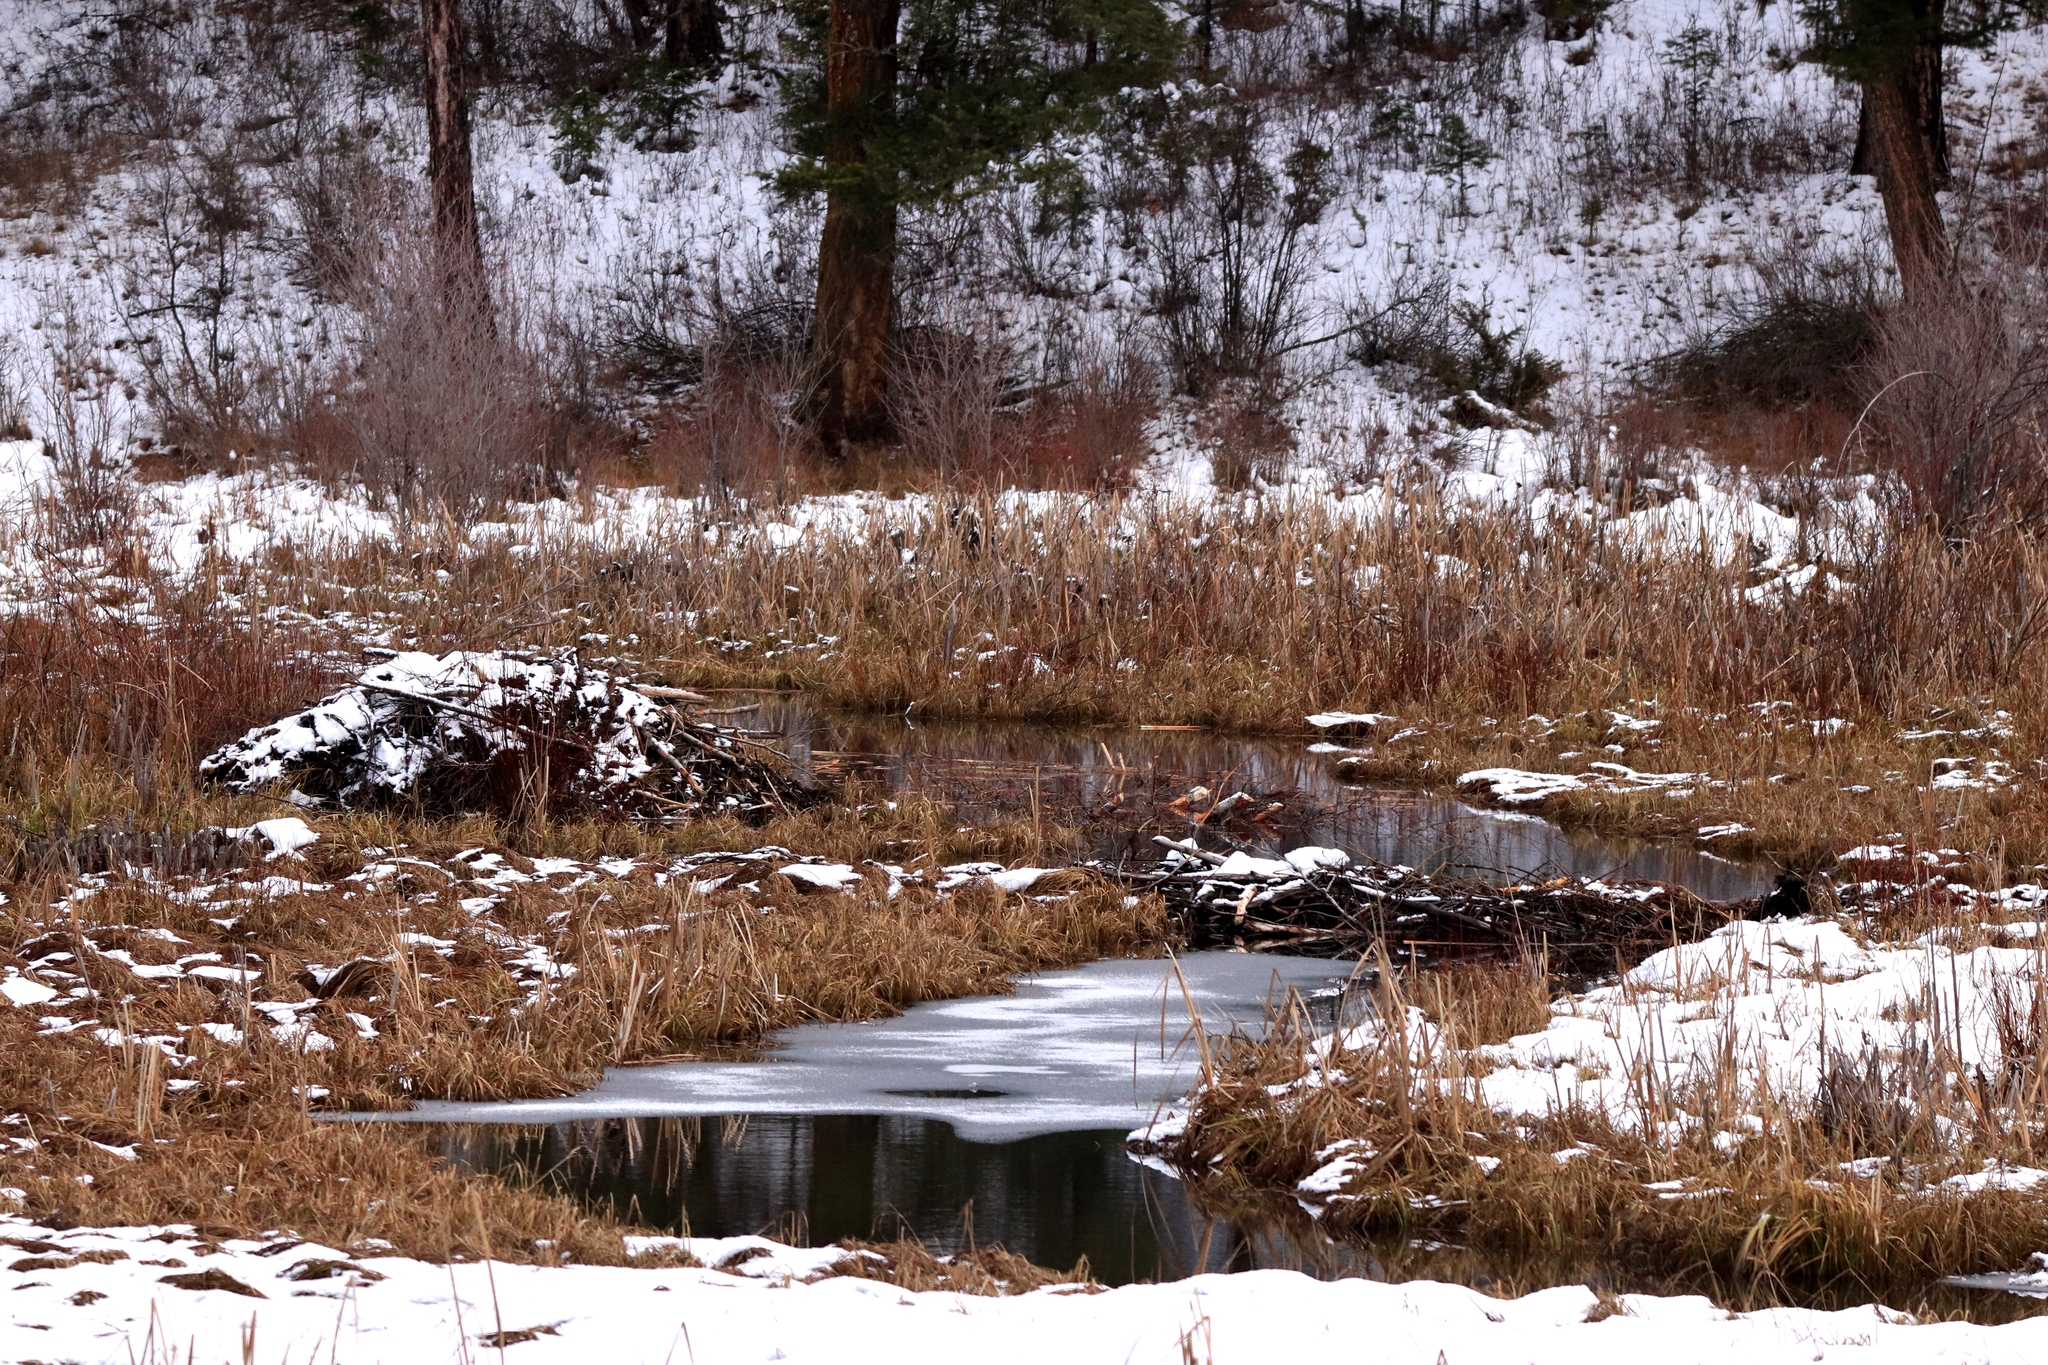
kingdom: Animalia
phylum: Chordata
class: Mammalia
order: Rodentia
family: Castoridae
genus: Castor
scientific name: Castor canadensis
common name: American beaver
